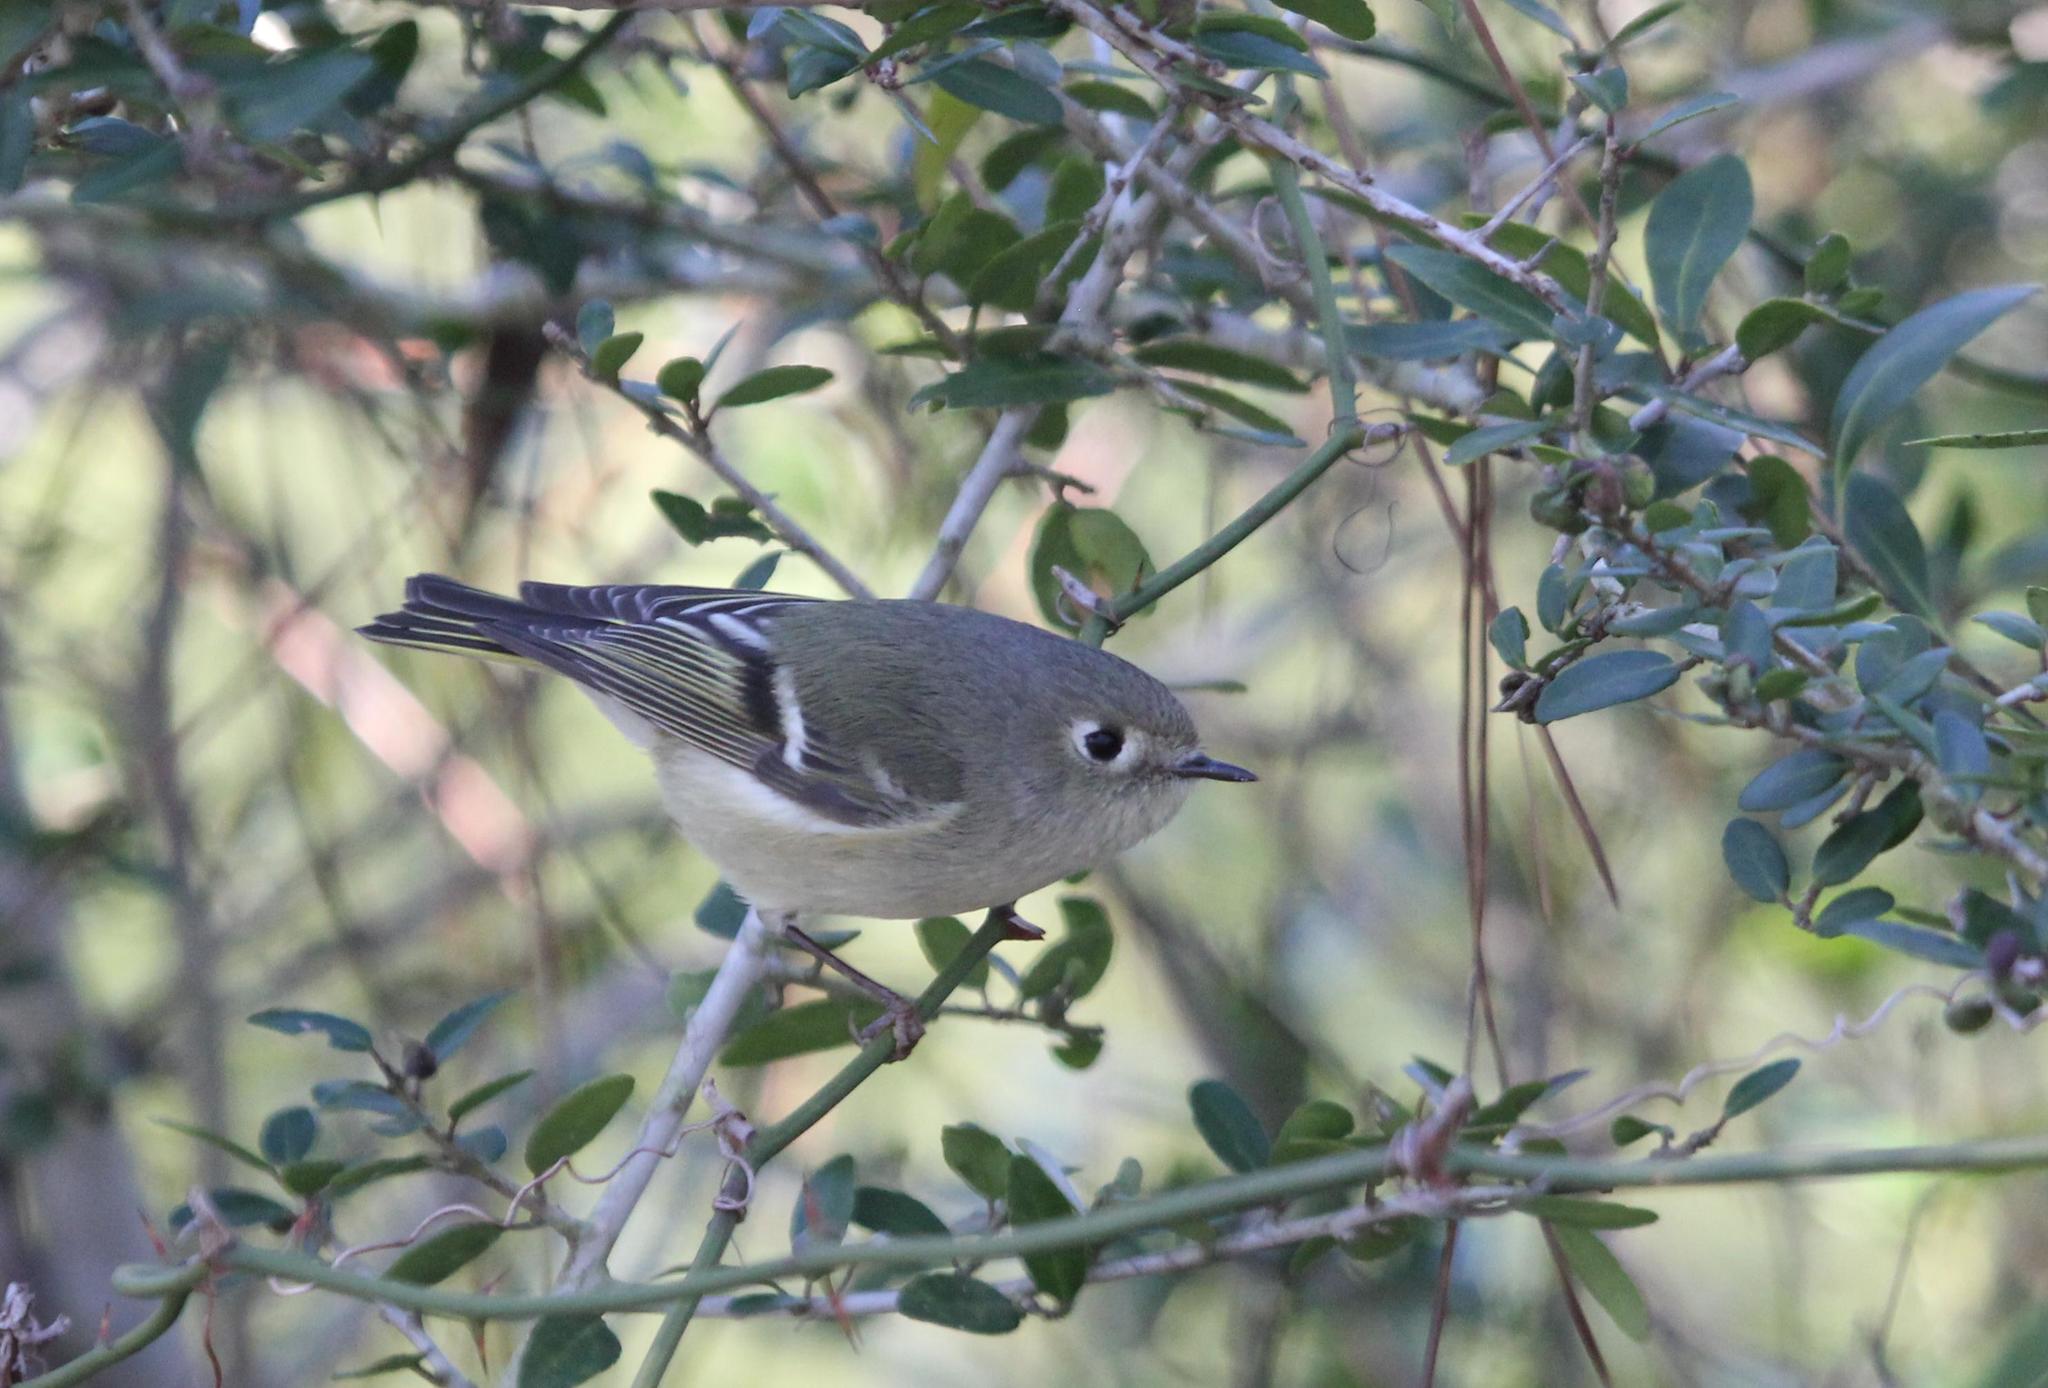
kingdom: Animalia
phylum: Chordata
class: Aves
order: Passeriformes
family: Regulidae
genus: Regulus
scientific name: Regulus calendula
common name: Ruby-crowned kinglet
